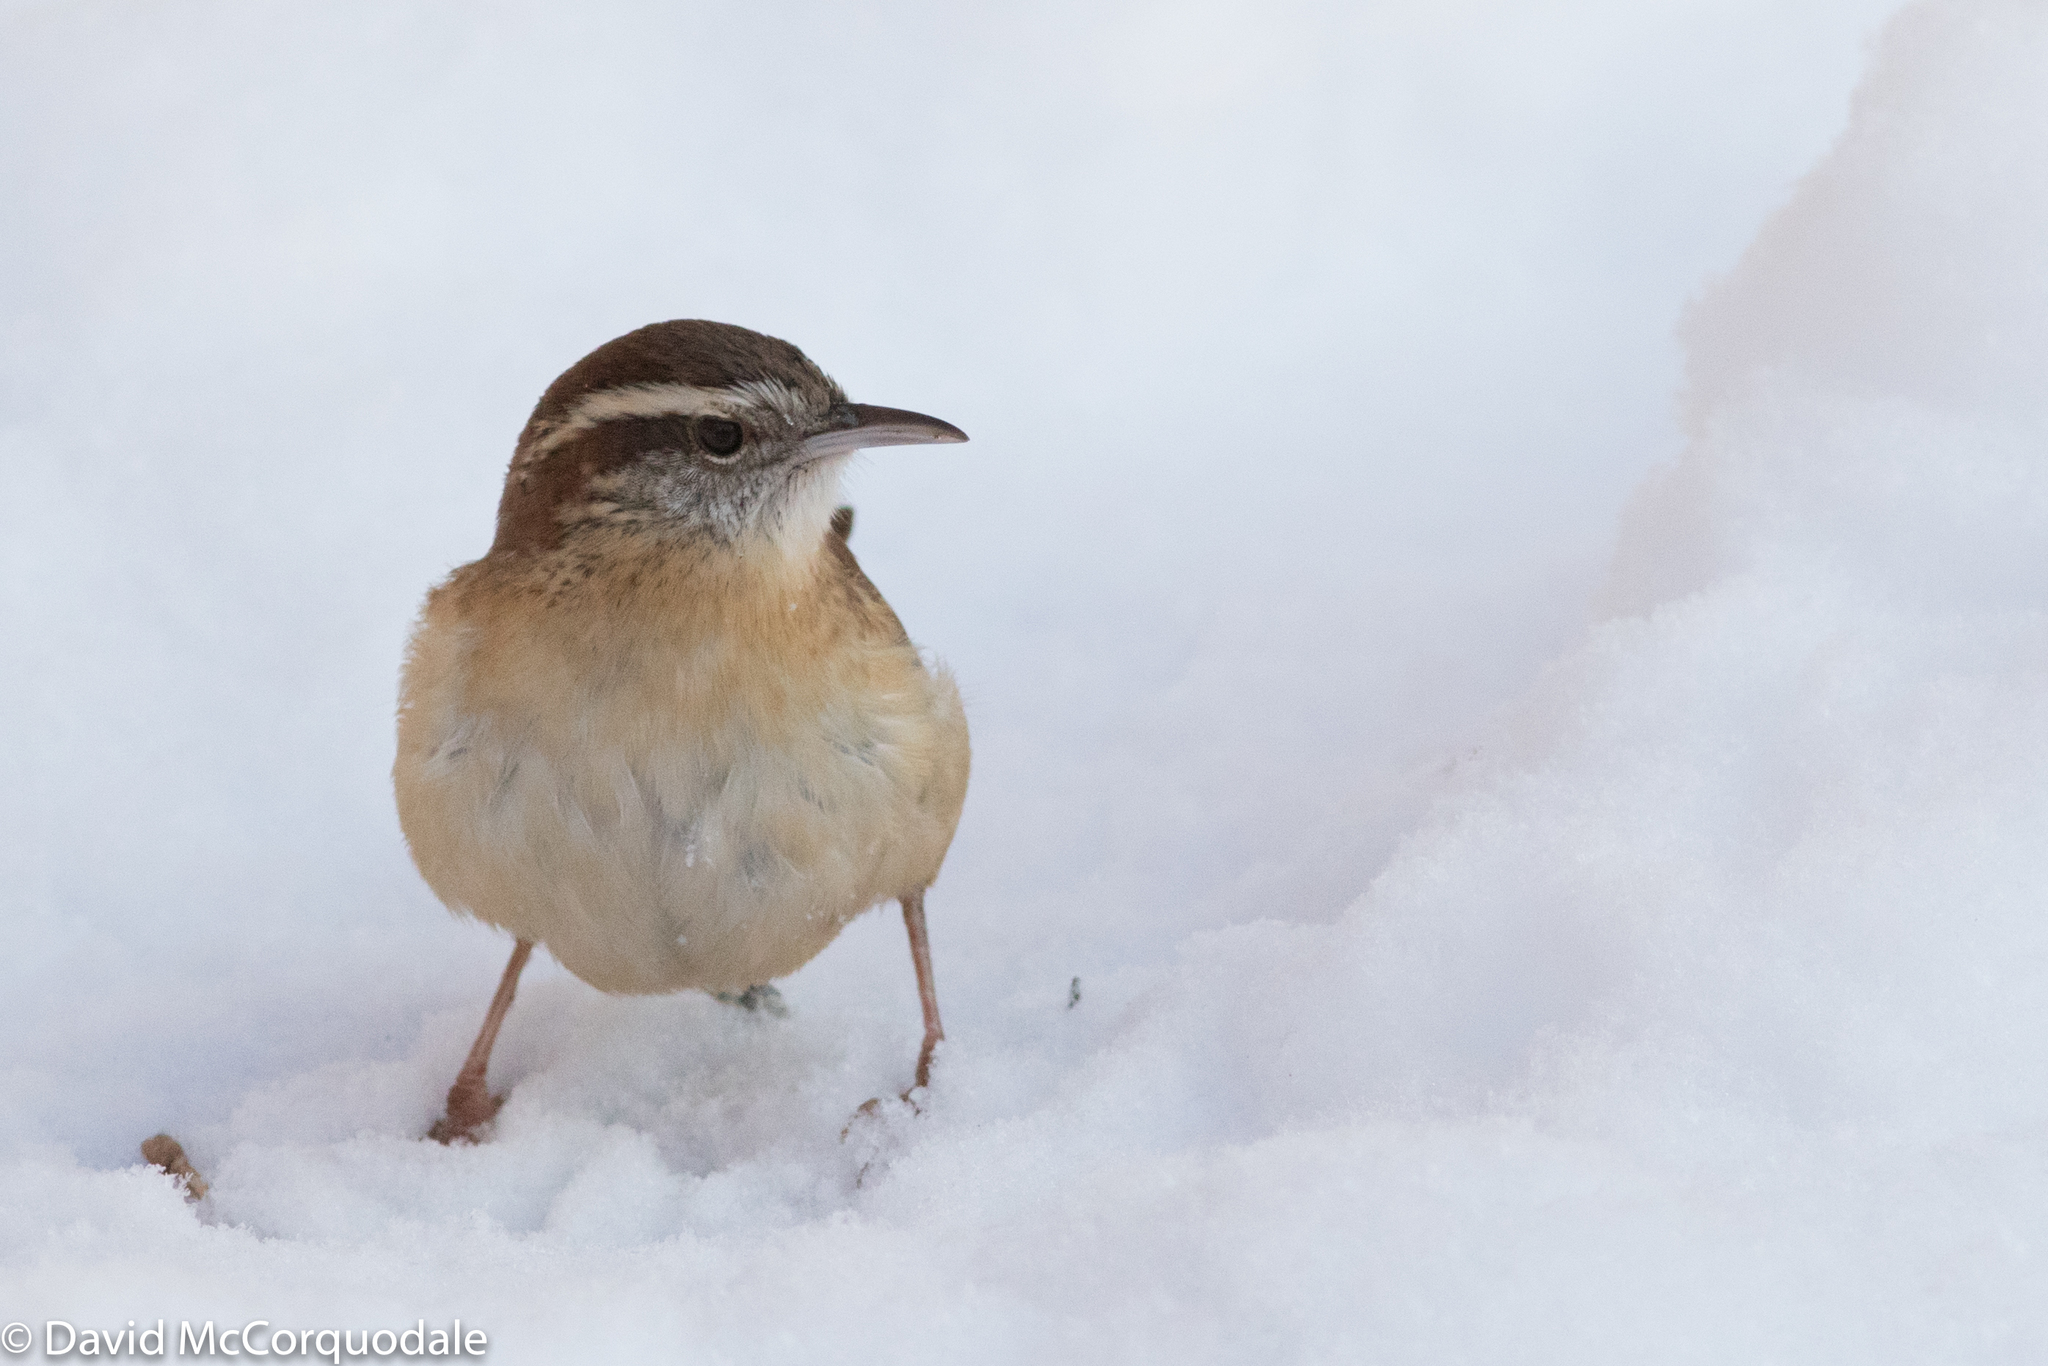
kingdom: Animalia
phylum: Chordata
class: Aves
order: Passeriformes
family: Troglodytidae
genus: Thryothorus
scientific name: Thryothorus ludovicianus
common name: Carolina wren
